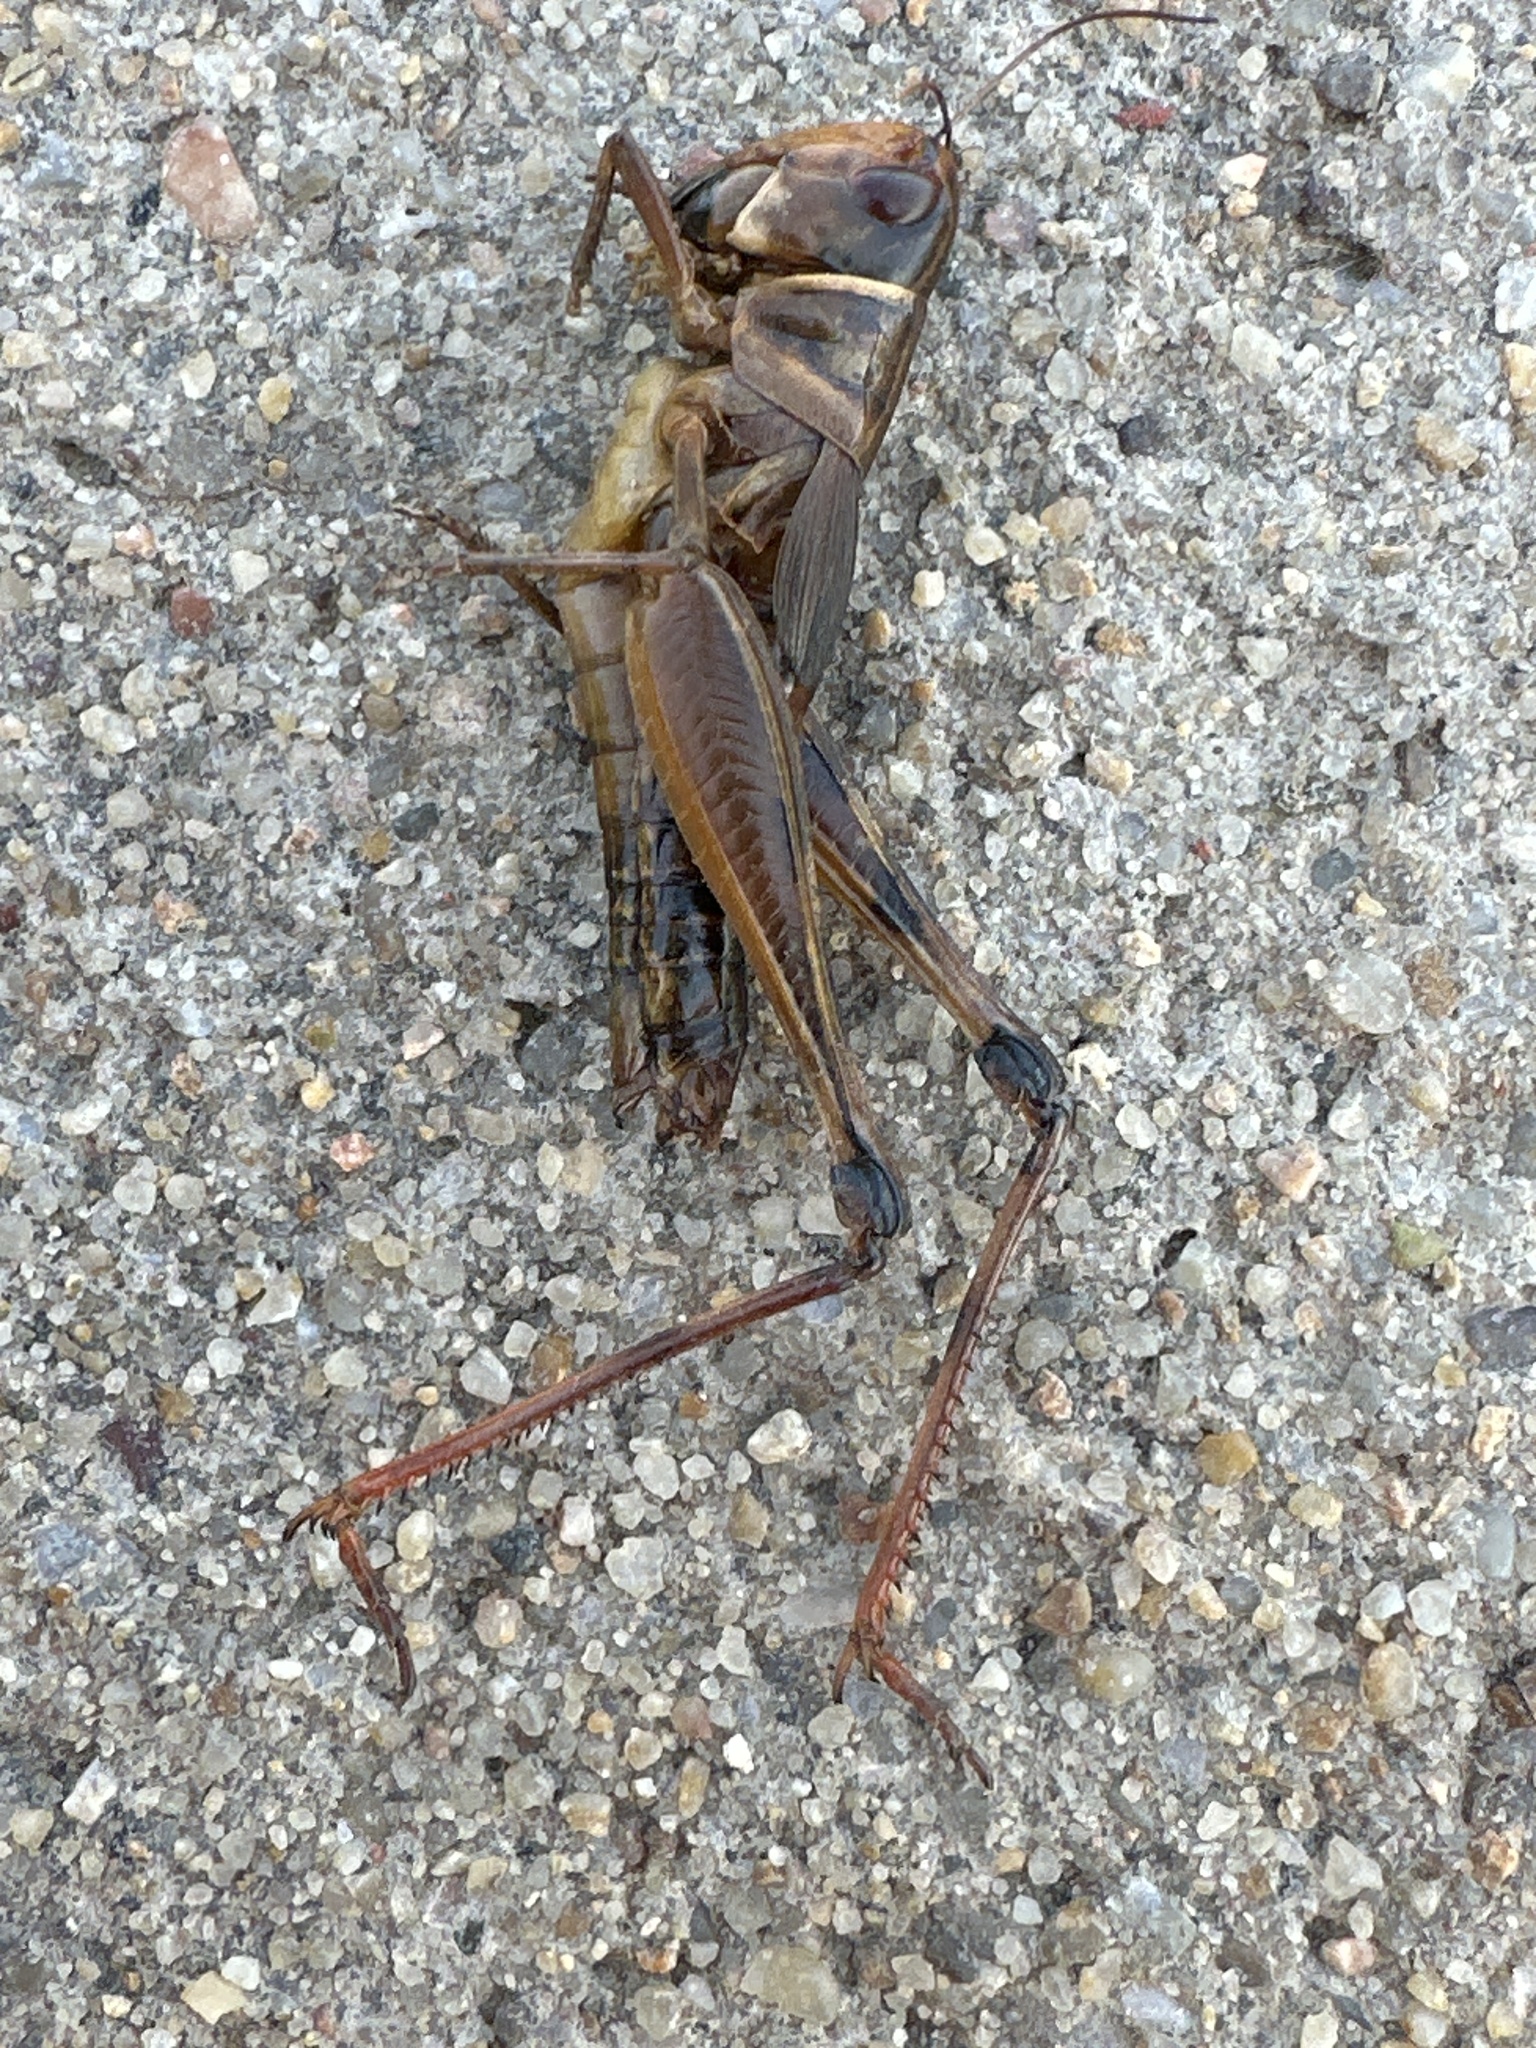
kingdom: Animalia
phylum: Arthropoda
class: Insecta
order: Orthoptera
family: Acrididae
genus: Boopedon
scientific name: Boopedon auriventris
